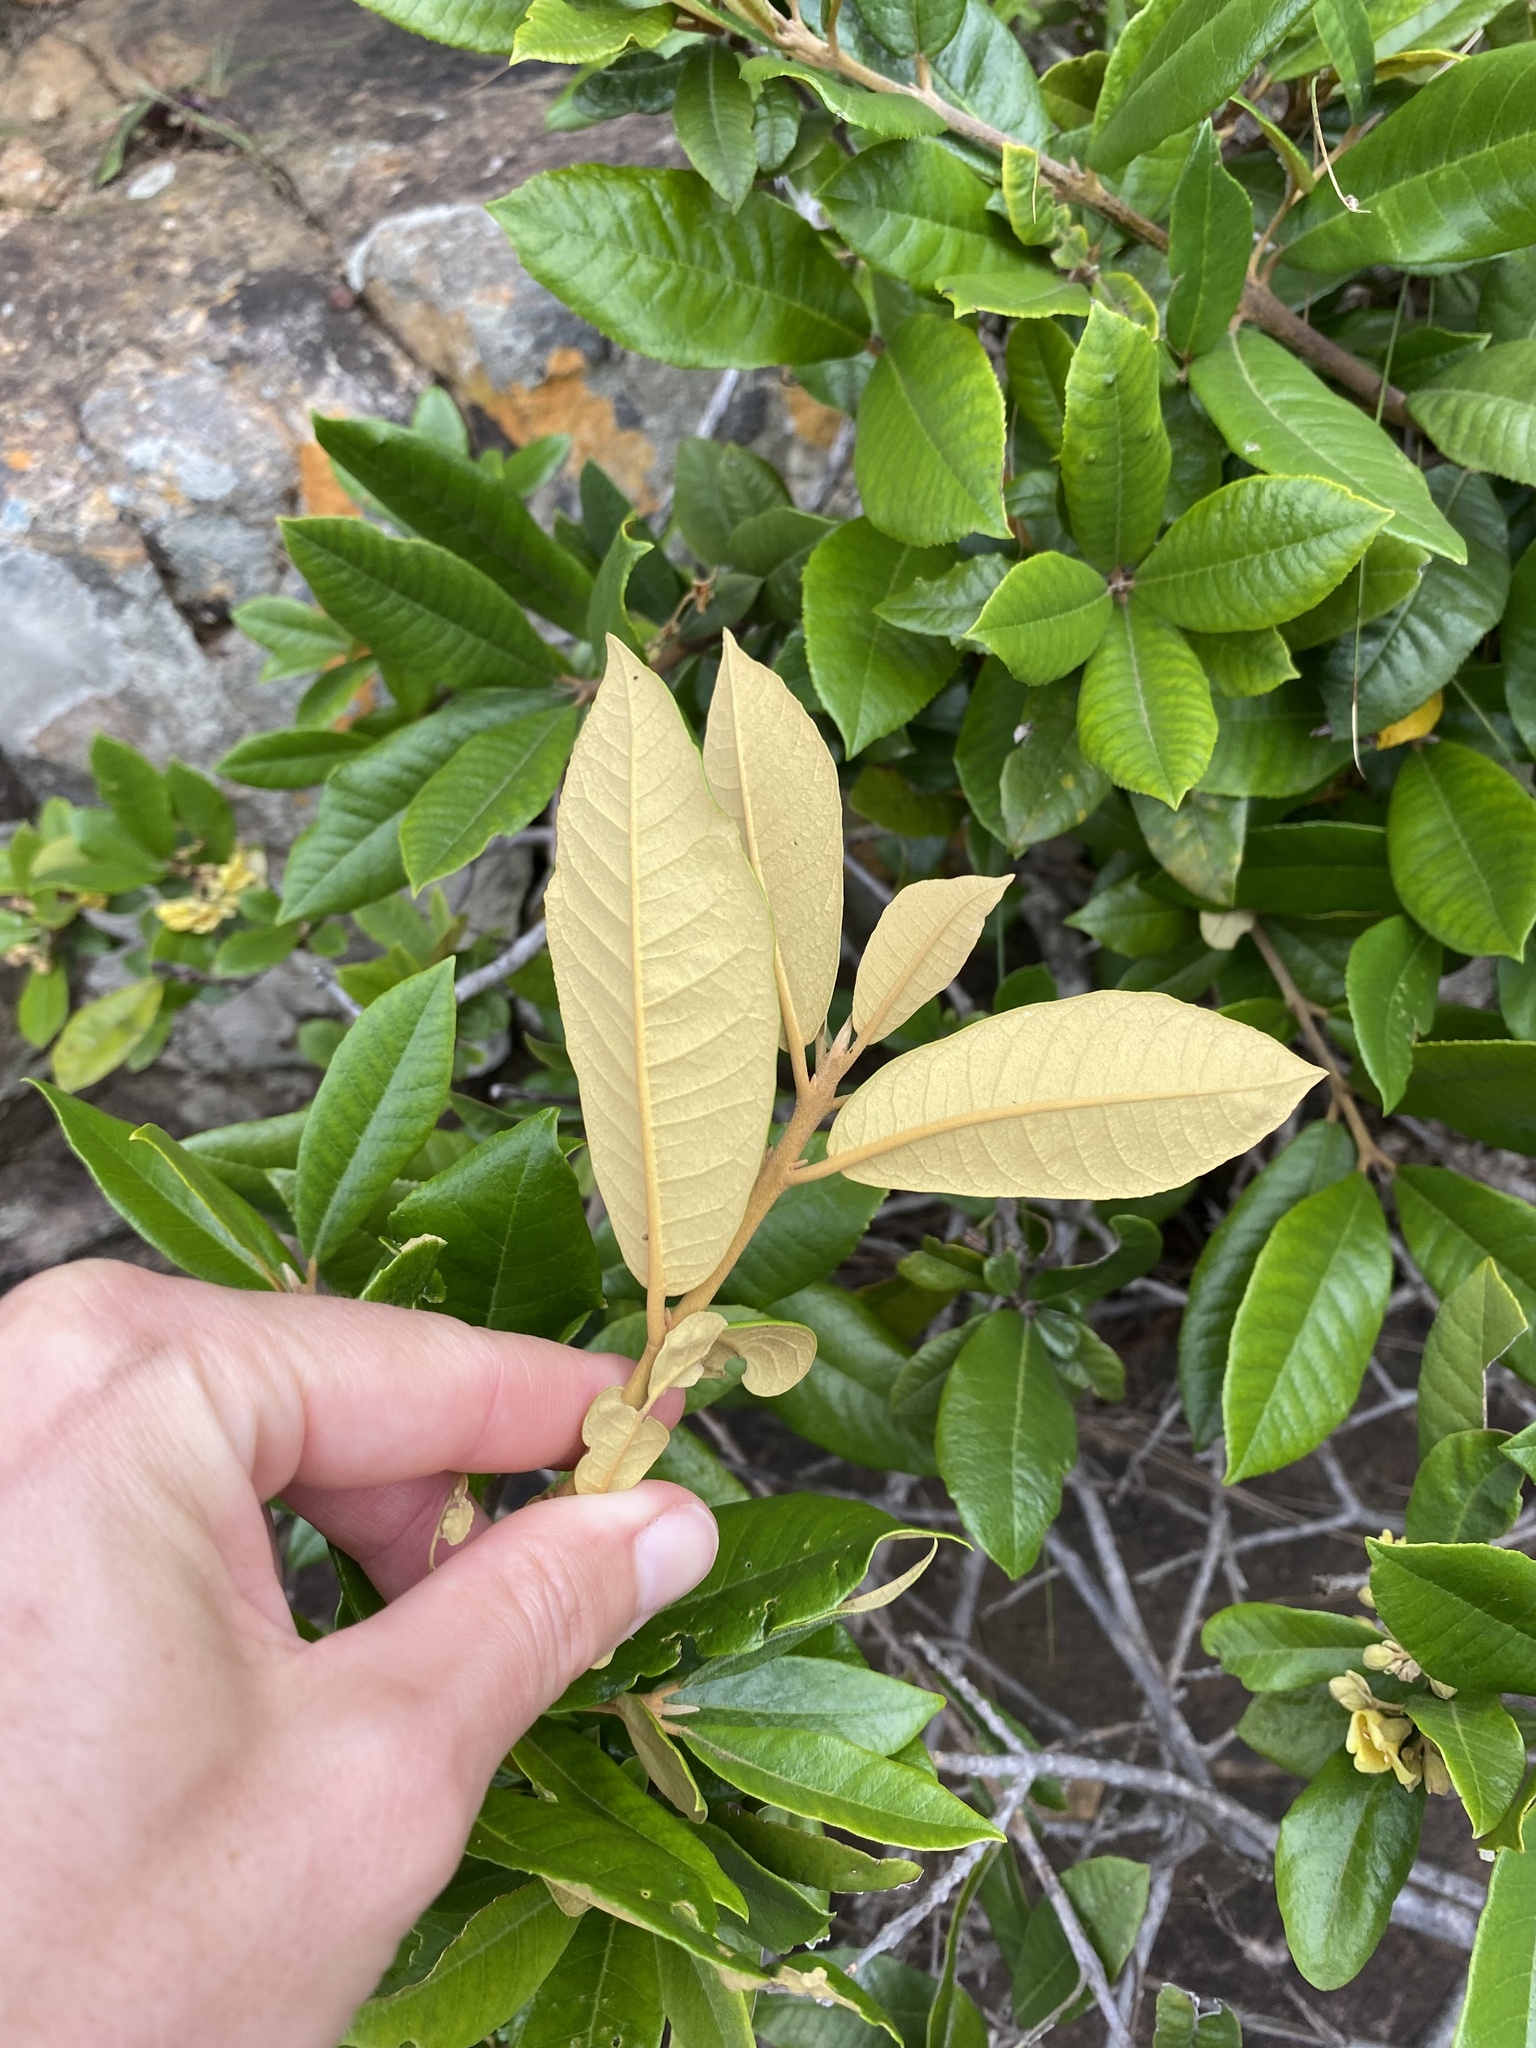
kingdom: Plantae
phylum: Tracheophyta
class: Magnoliopsida
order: Lamiales
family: Stilbaceae
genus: Anastrabe
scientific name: Anastrabe integerrima
